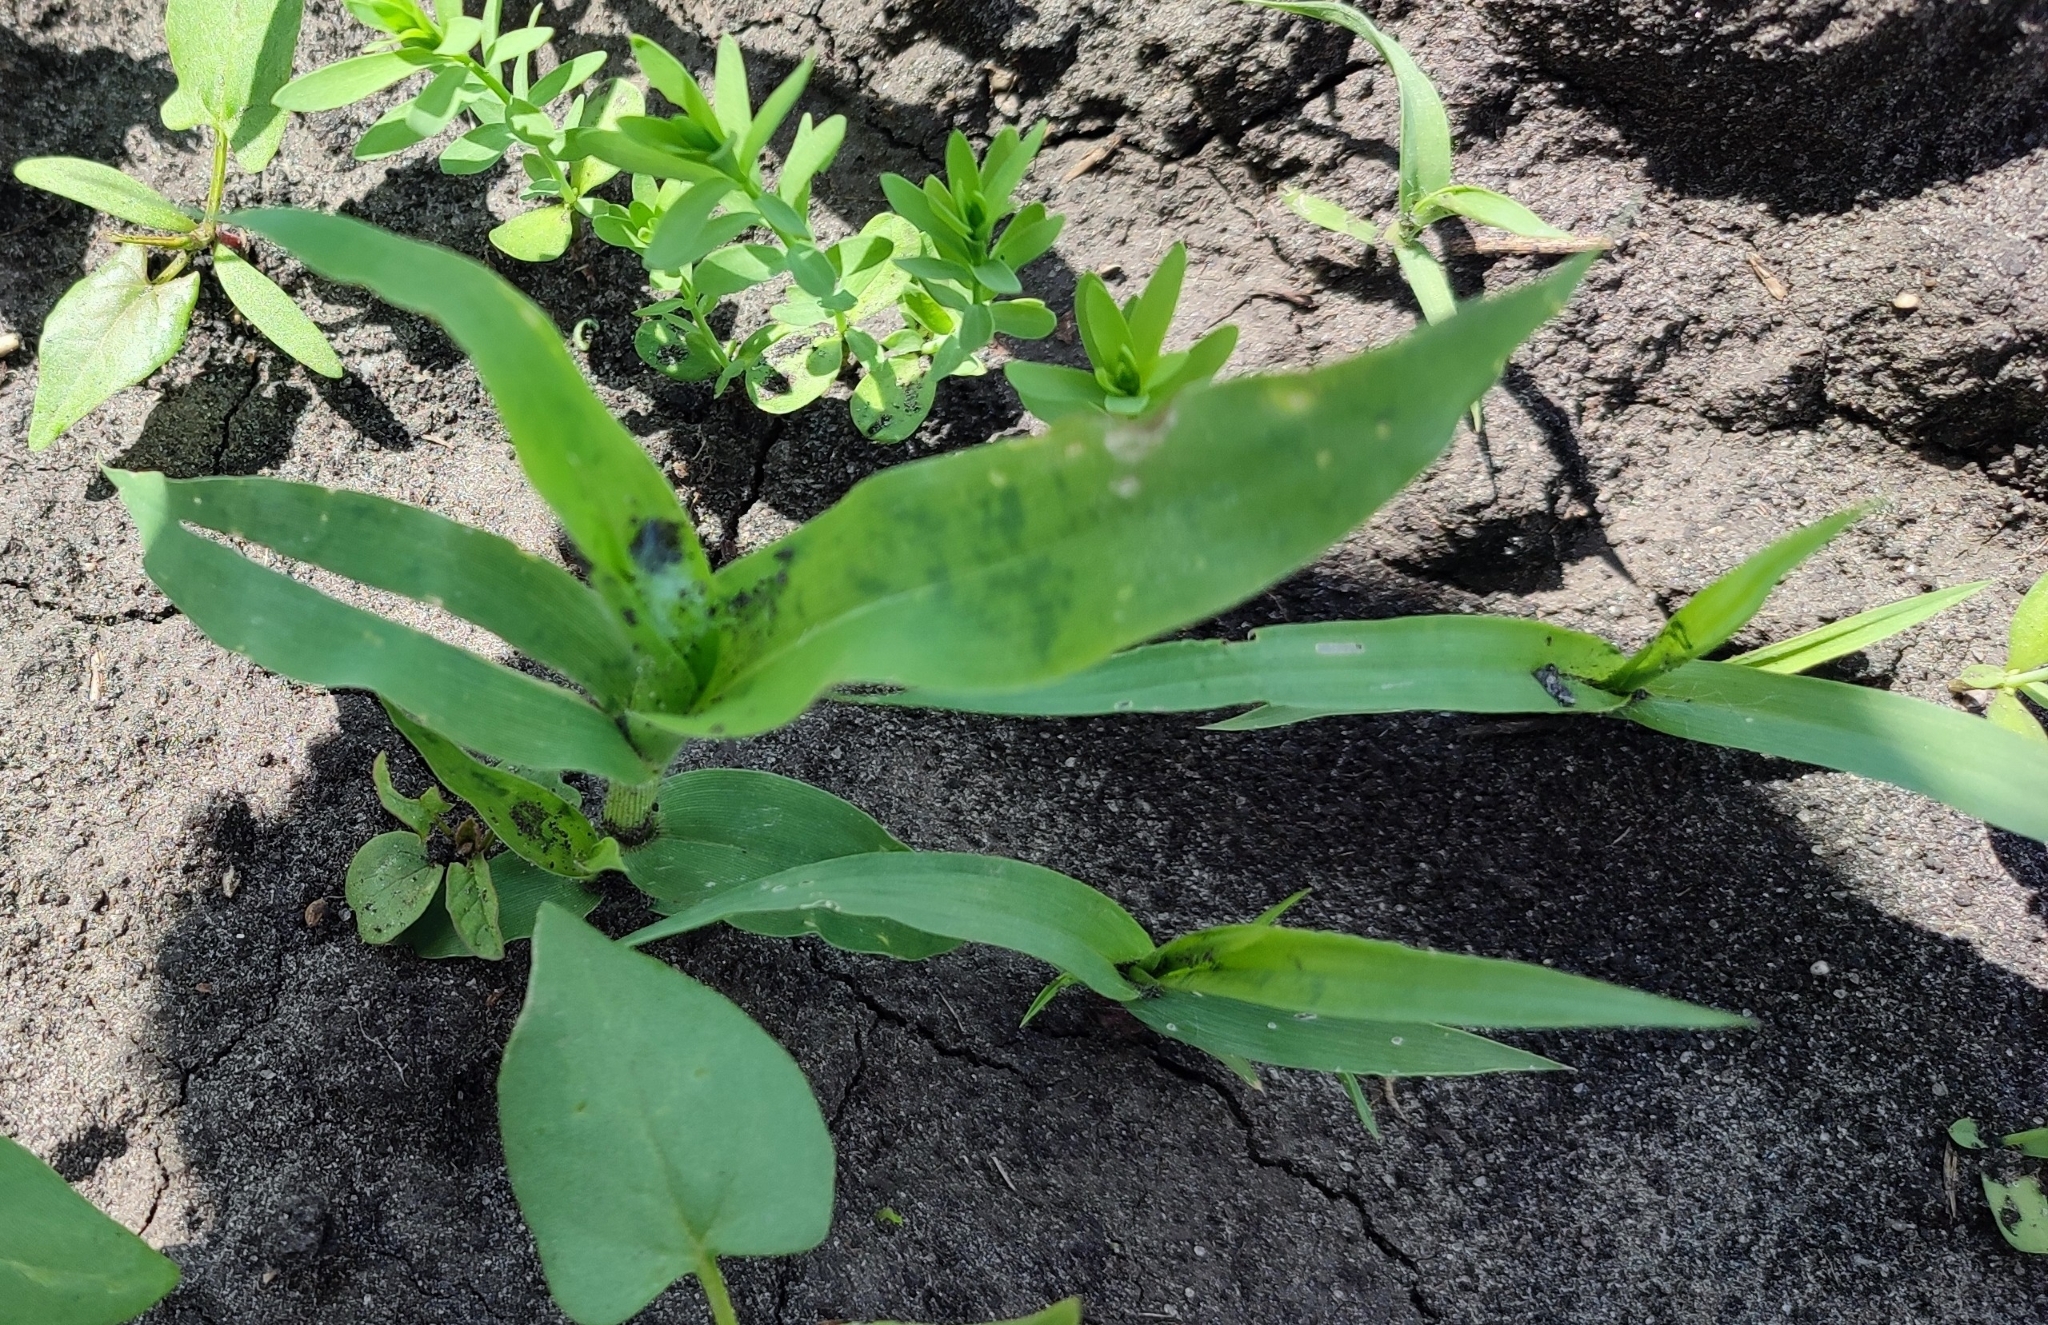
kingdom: Plantae
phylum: Tracheophyta
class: Liliopsida
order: Poales
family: Poaceae
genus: Panicum
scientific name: Panicum miliaceum
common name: Common millet
